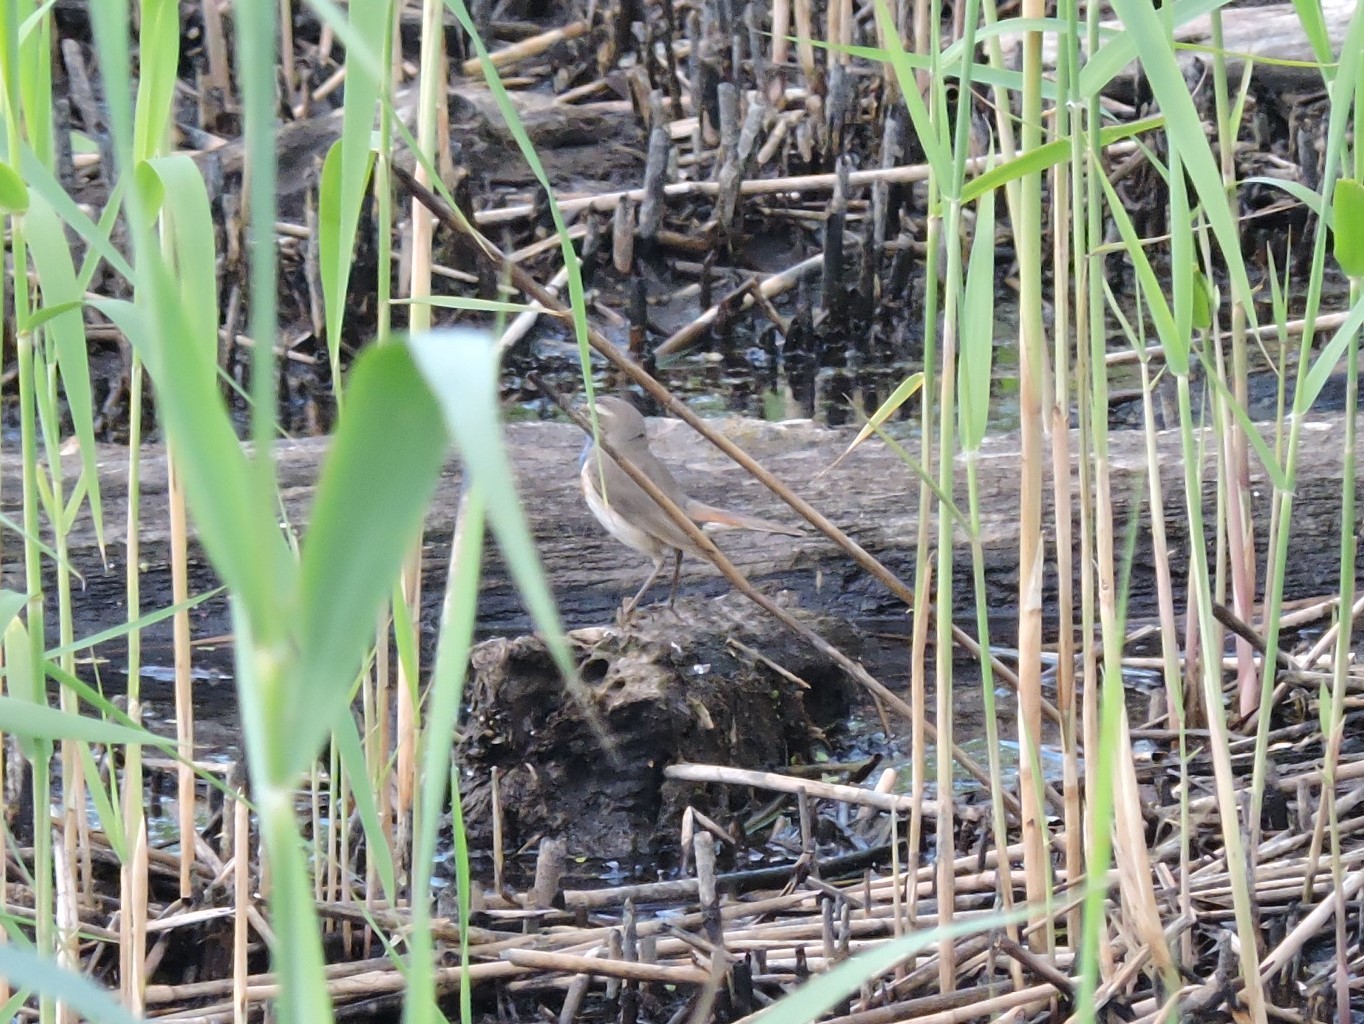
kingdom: Animalia
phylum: Chordata
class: Aves
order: Passeriformes
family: Muscicapidae
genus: Luscinia
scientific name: Luscinia svecica
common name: Bluethroat
